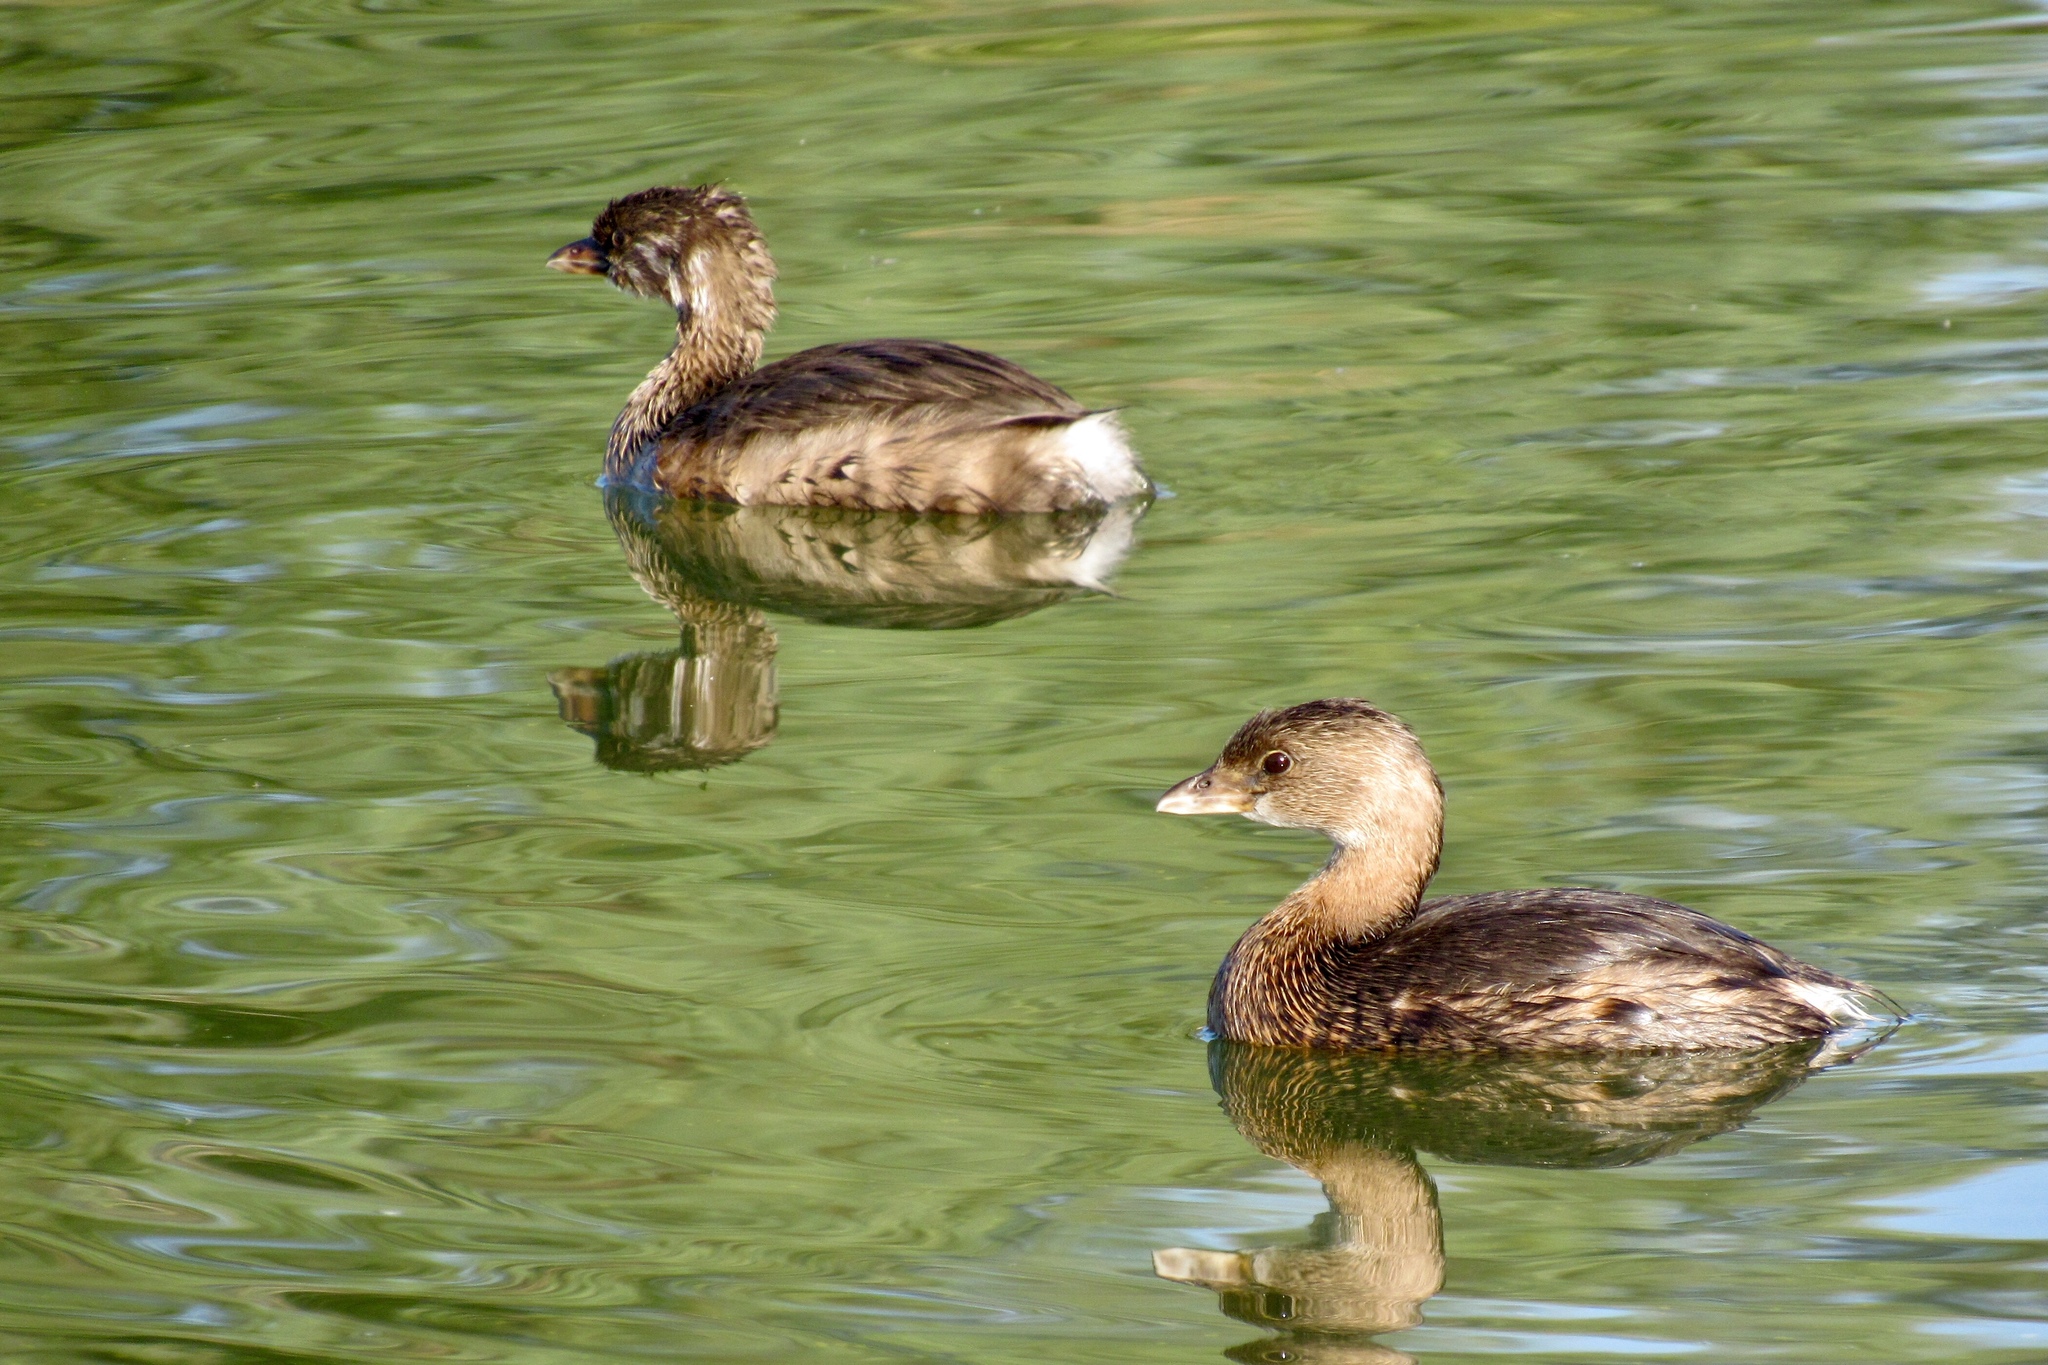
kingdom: Animalia
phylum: Chordata
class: Aves
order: Podicipediformes
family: Podicipedidae
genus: Podilymbus
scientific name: Podilymbus podiceps
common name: Pied-billed grebe
